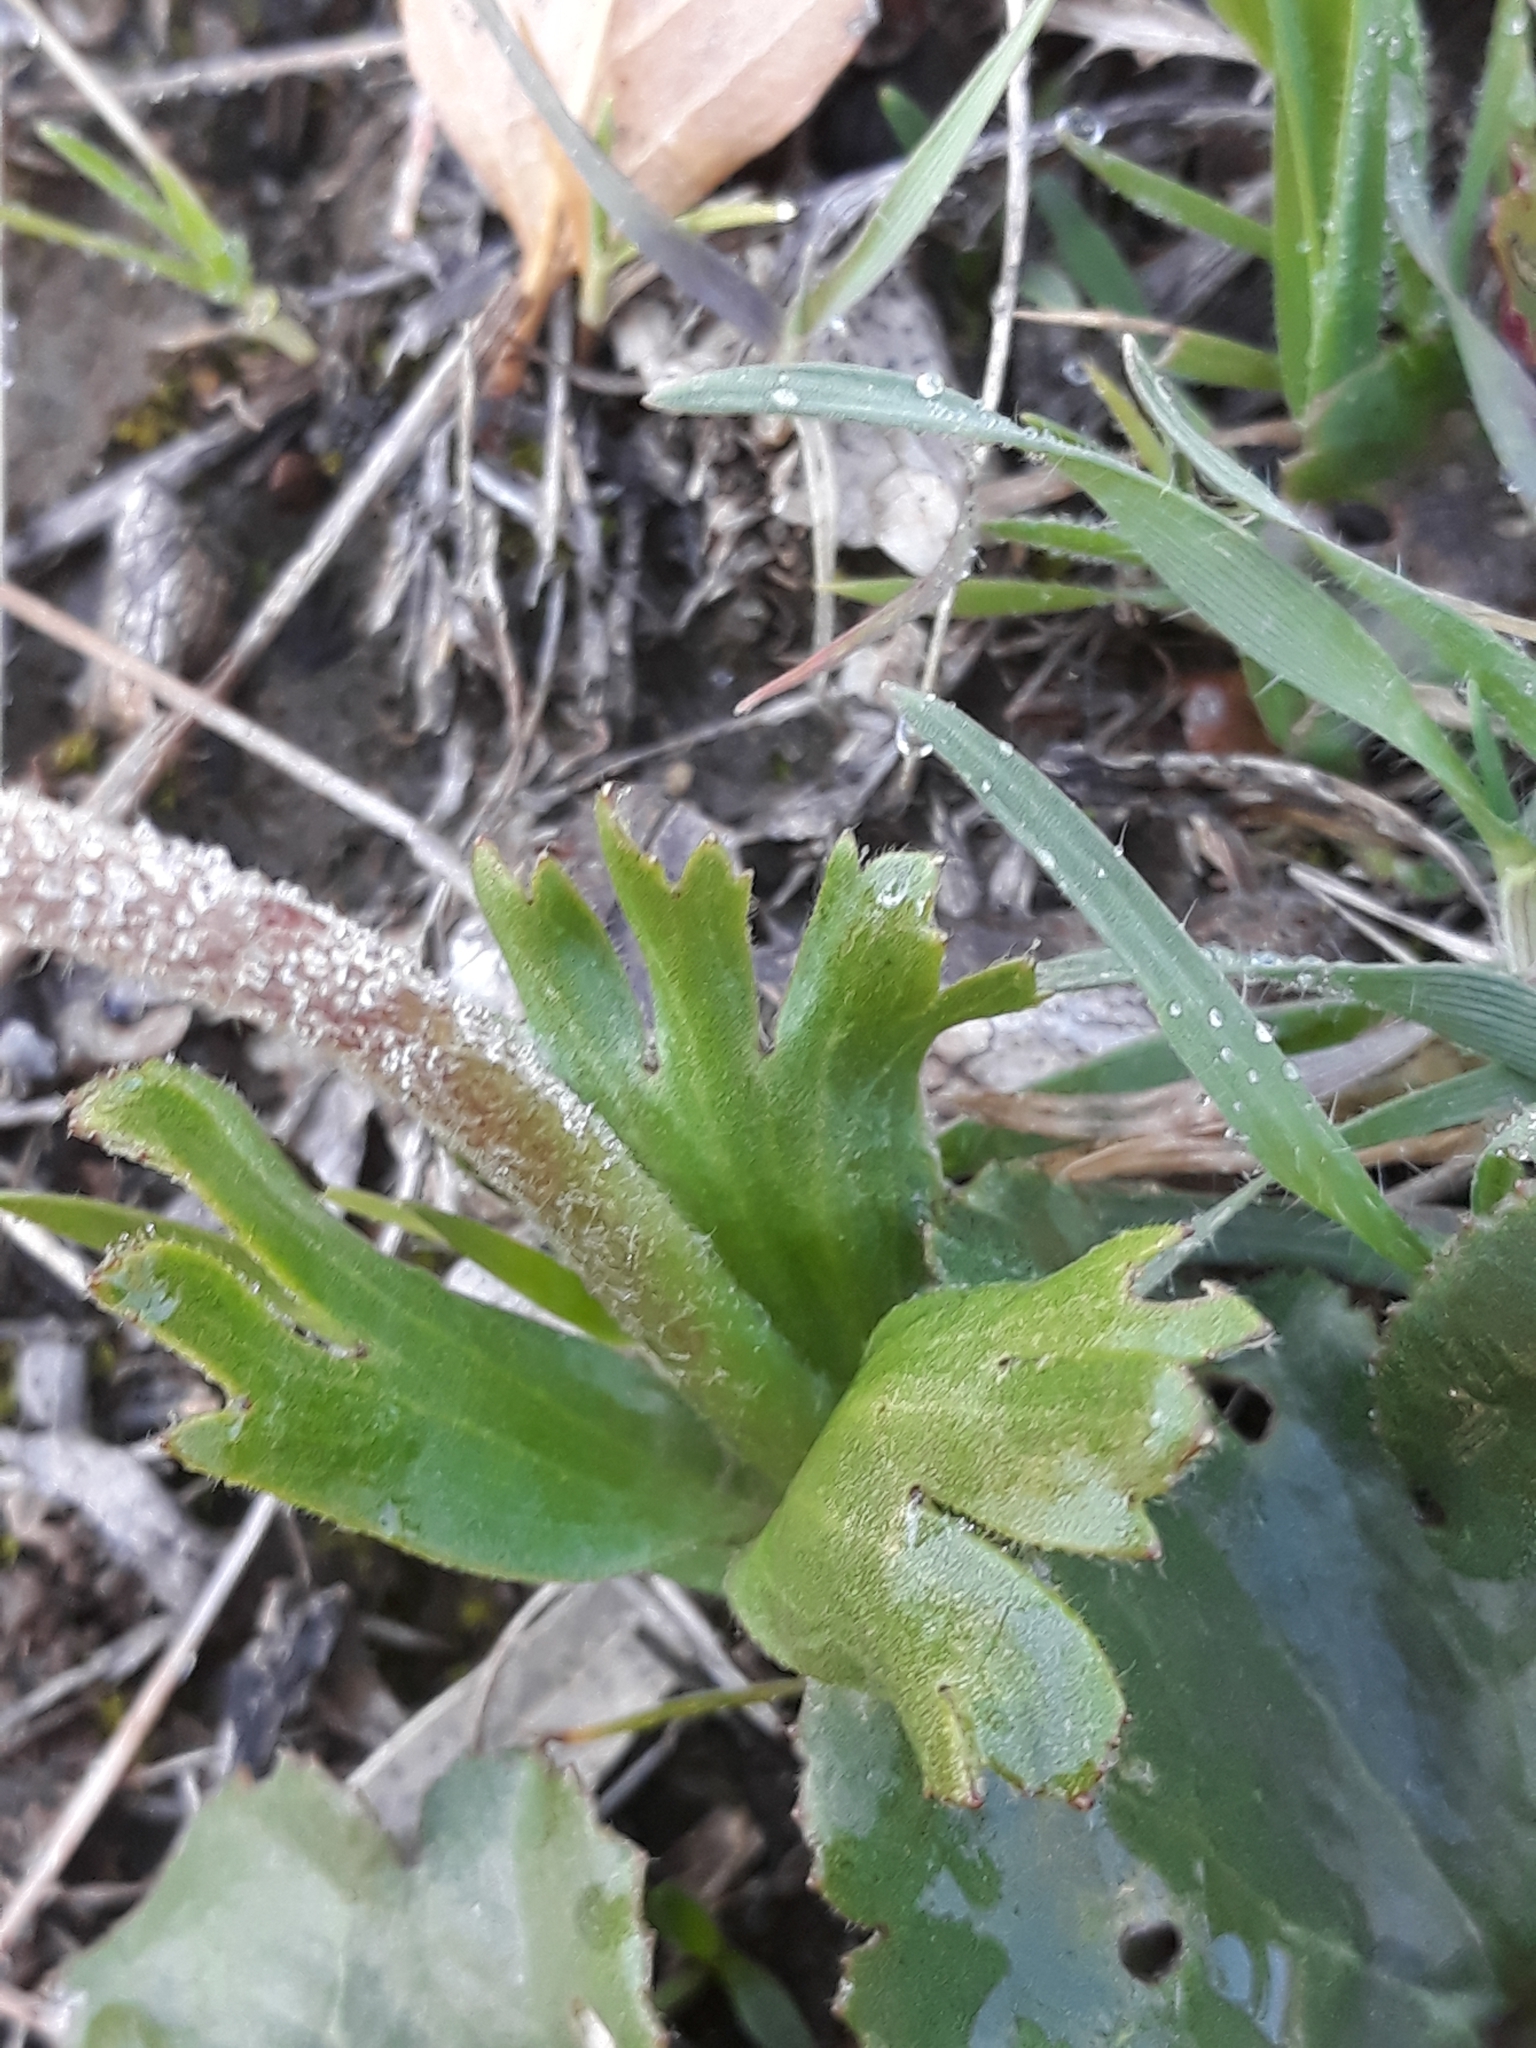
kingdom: Plantae
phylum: Tracheophyta
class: Magnoliopsida
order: Ranunculales
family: Ranunculaceae
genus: Anemone
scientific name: Anemone palmata
